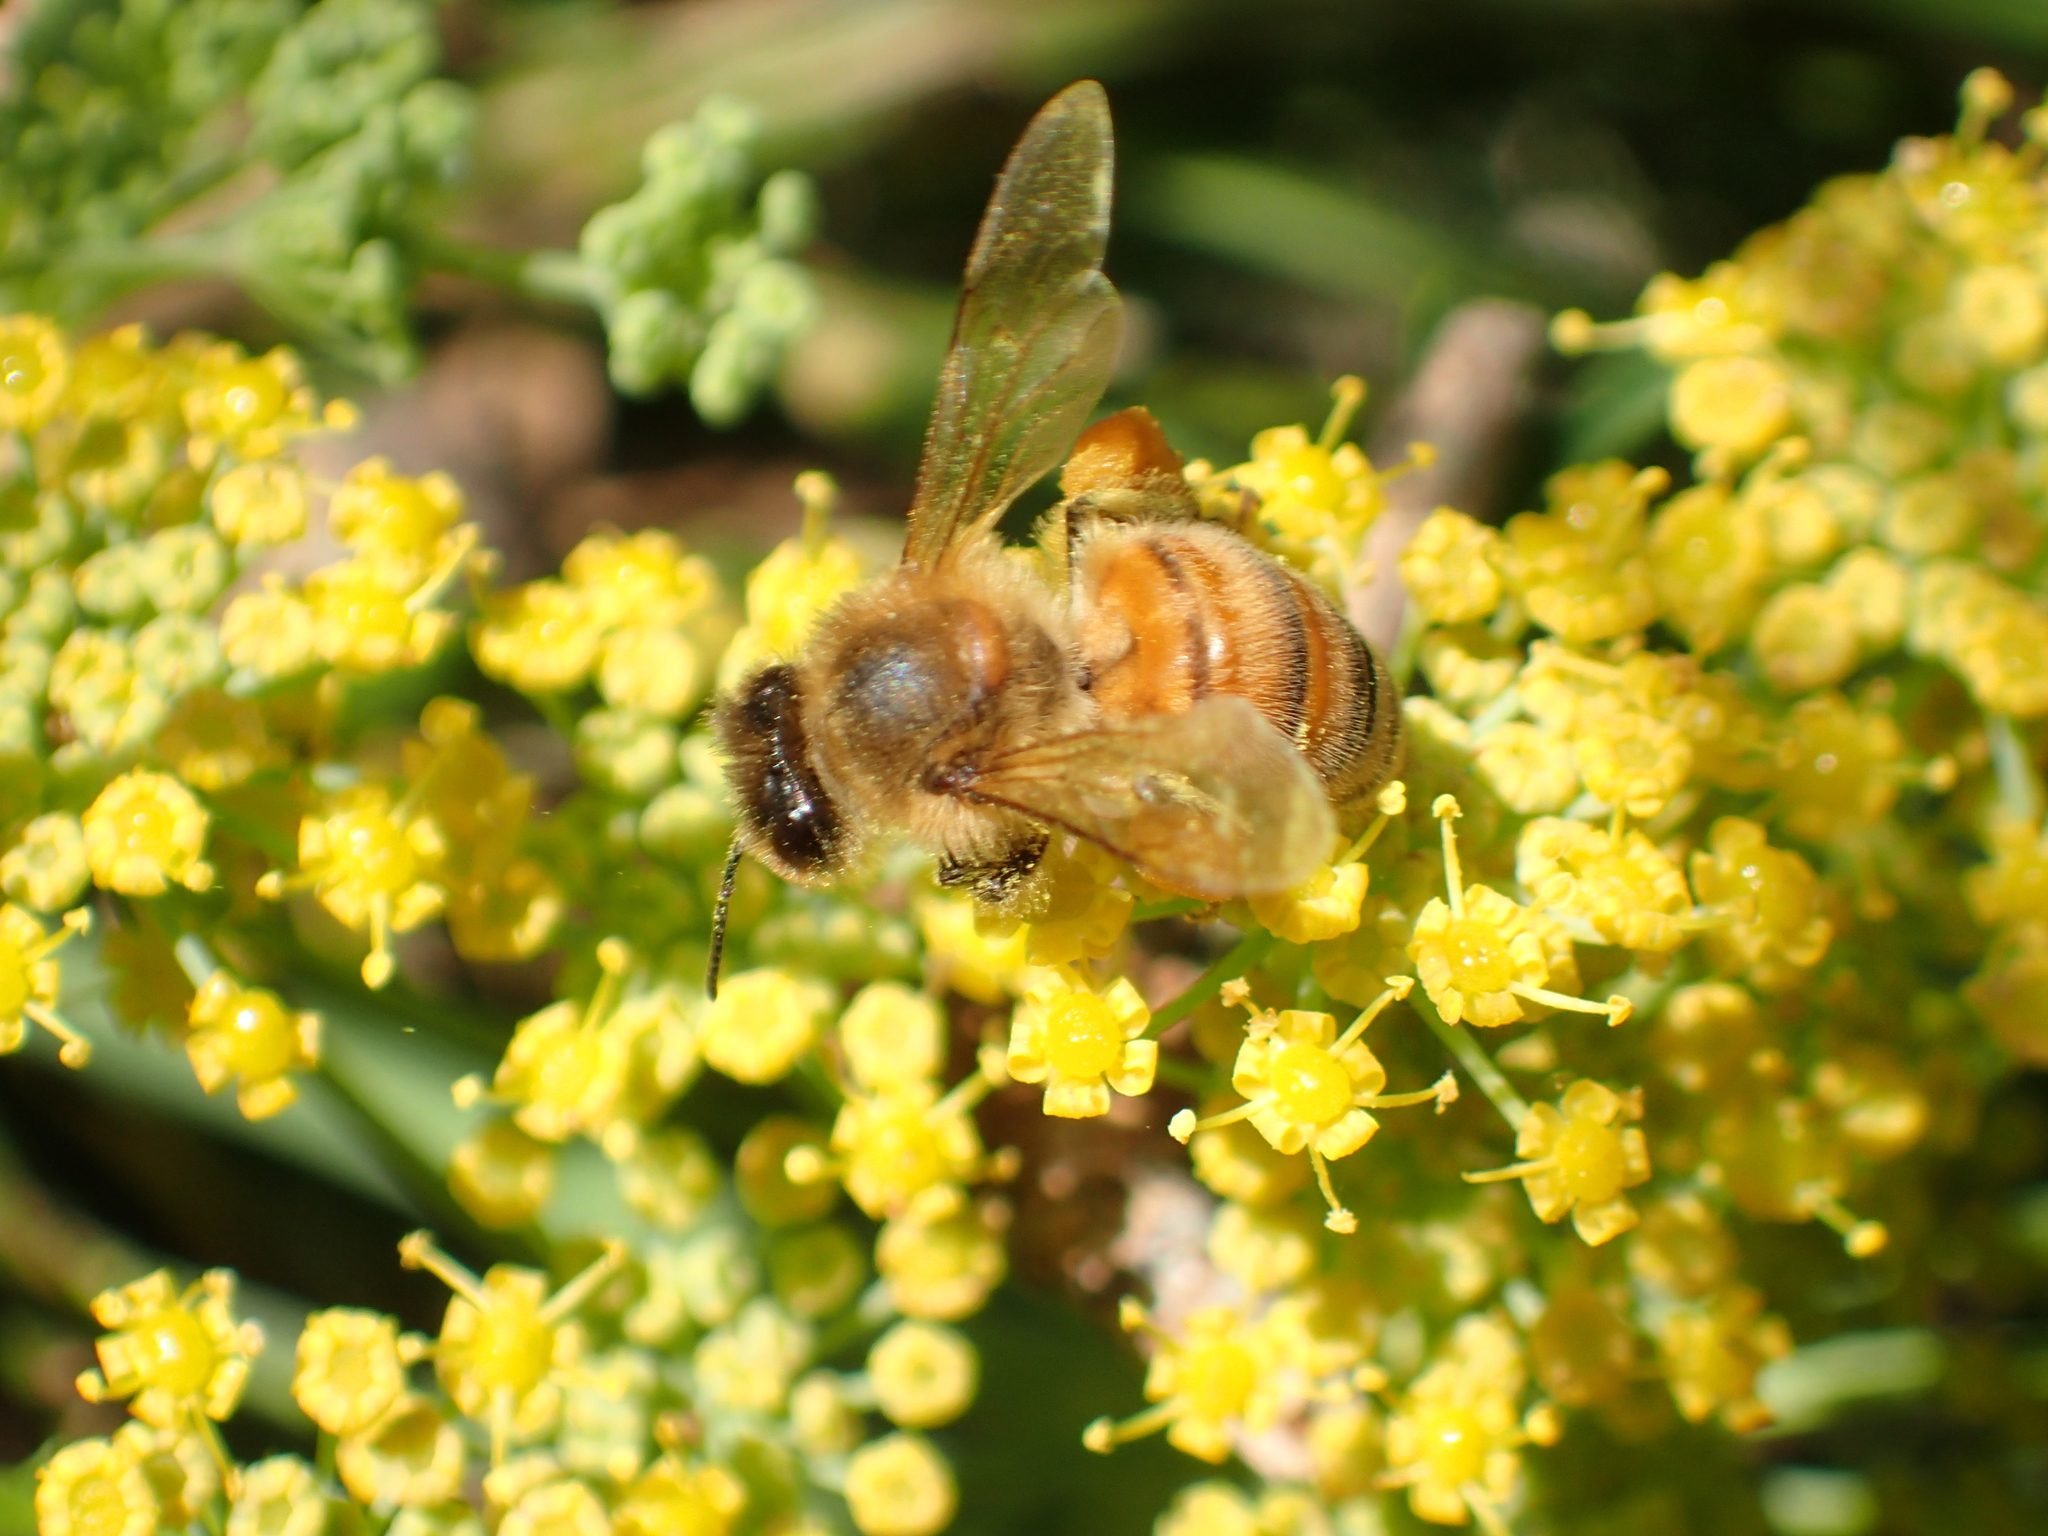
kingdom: Animalia
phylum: Arthropoda
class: Insecta
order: Hymenoptera
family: Apidae
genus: Apis
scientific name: Apis mellifera
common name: Honey bee
